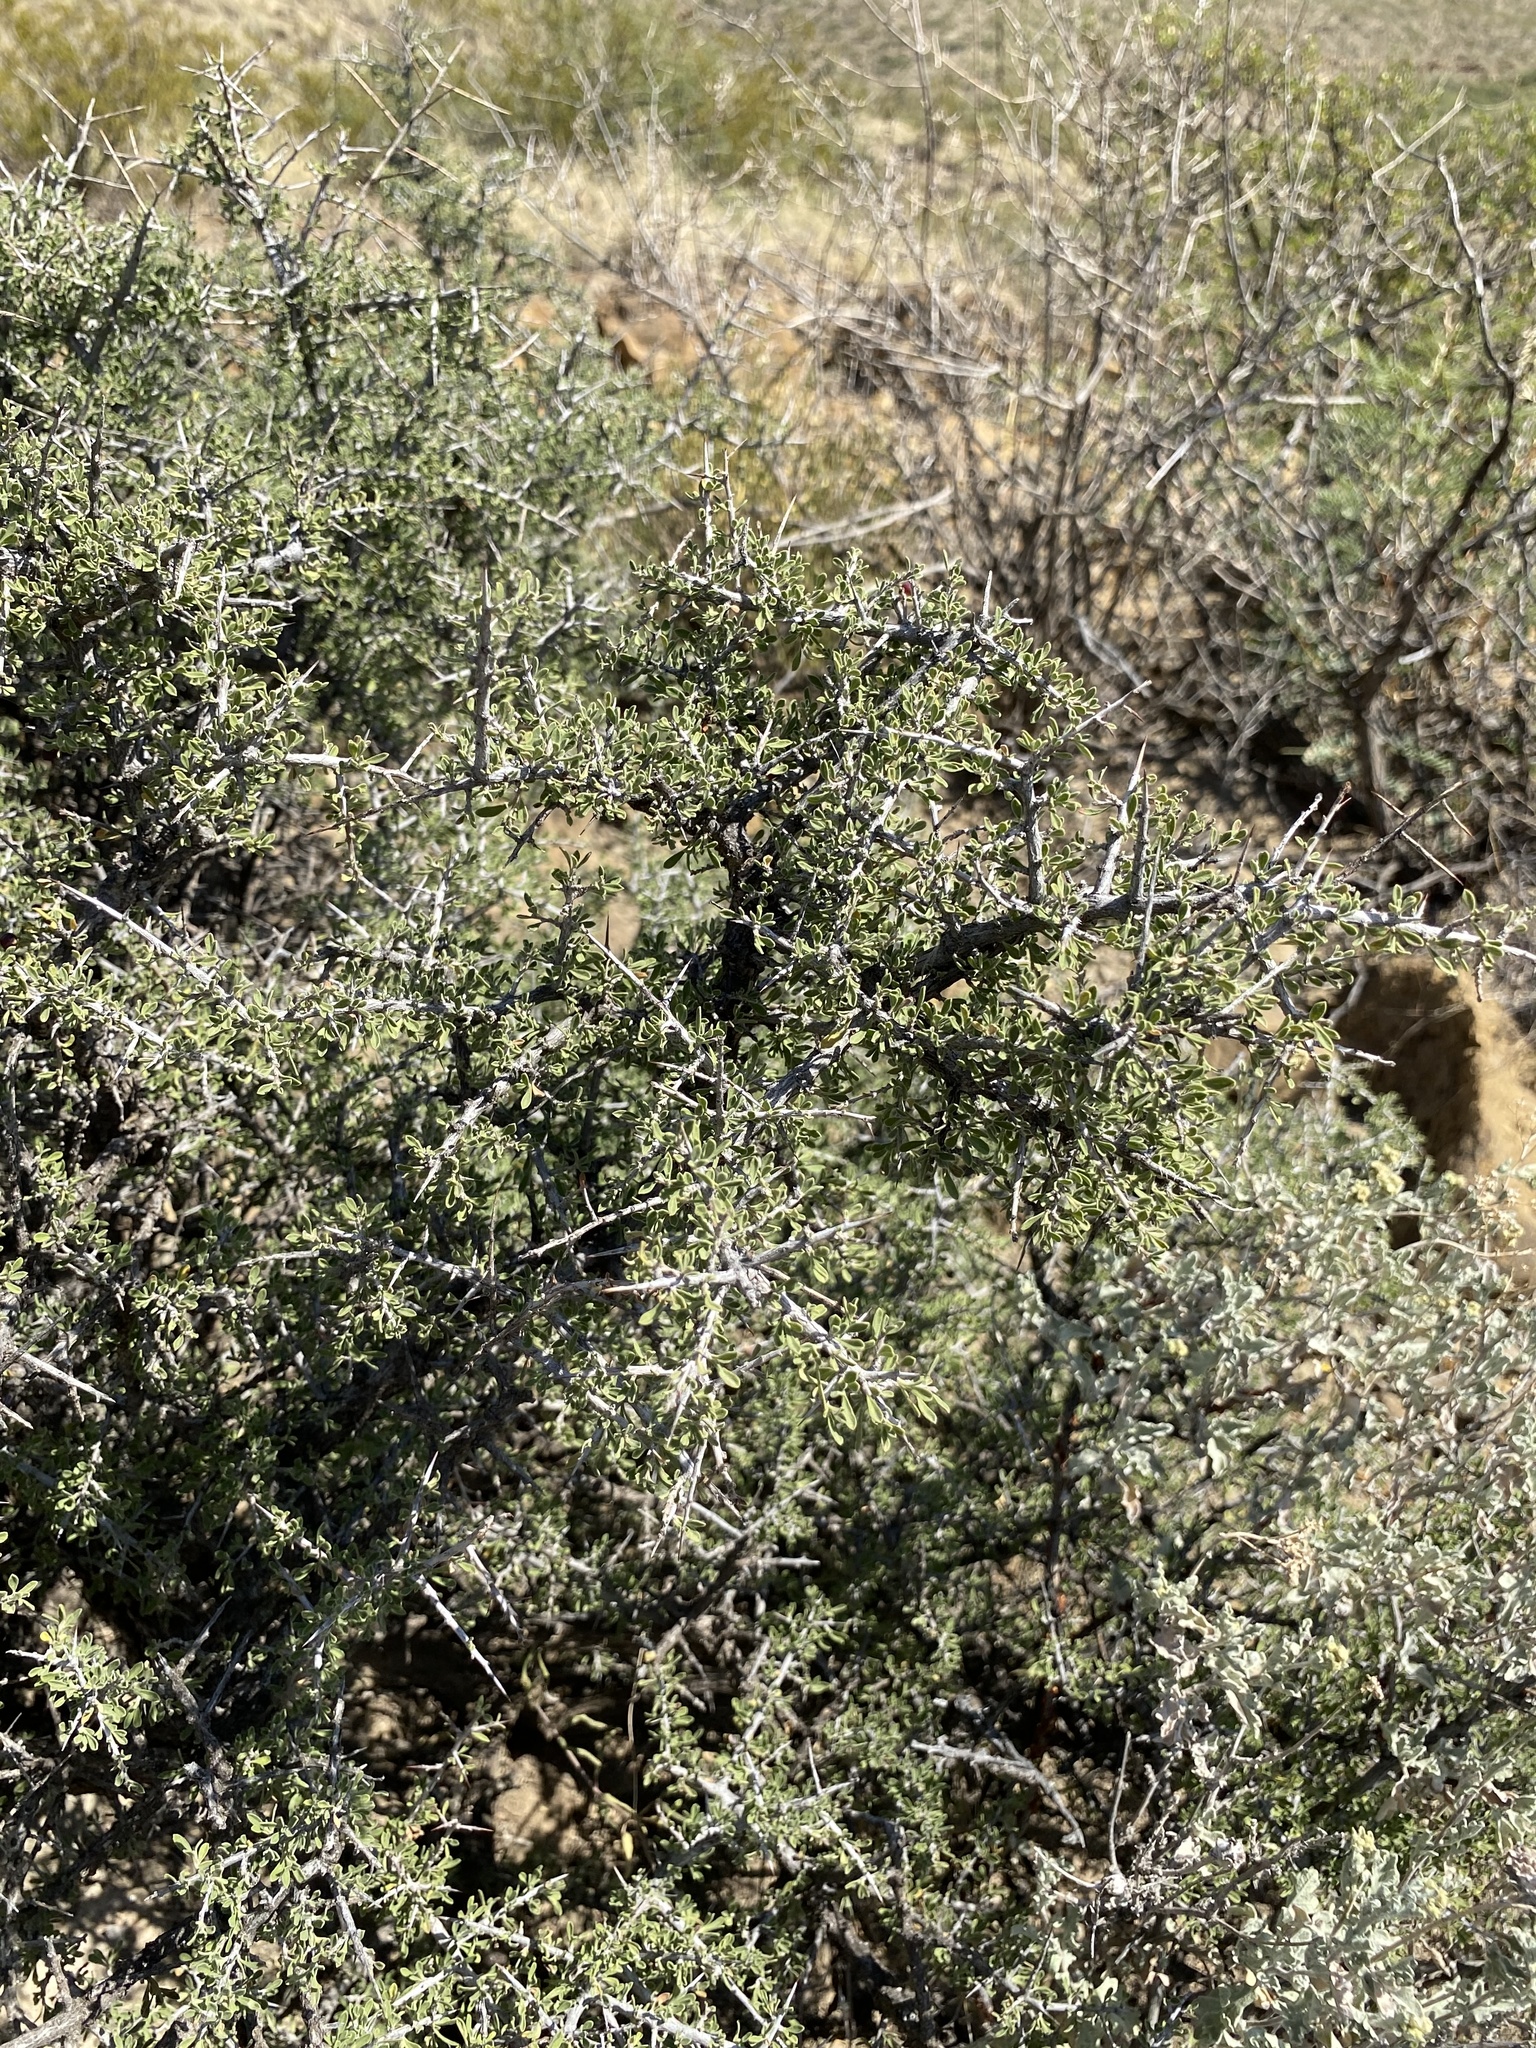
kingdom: Plantae
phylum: Tracheophyta
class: Magnoliopsida
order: Rosales
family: Rhamnaceae
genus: Condalia
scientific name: Condalia warnockii
